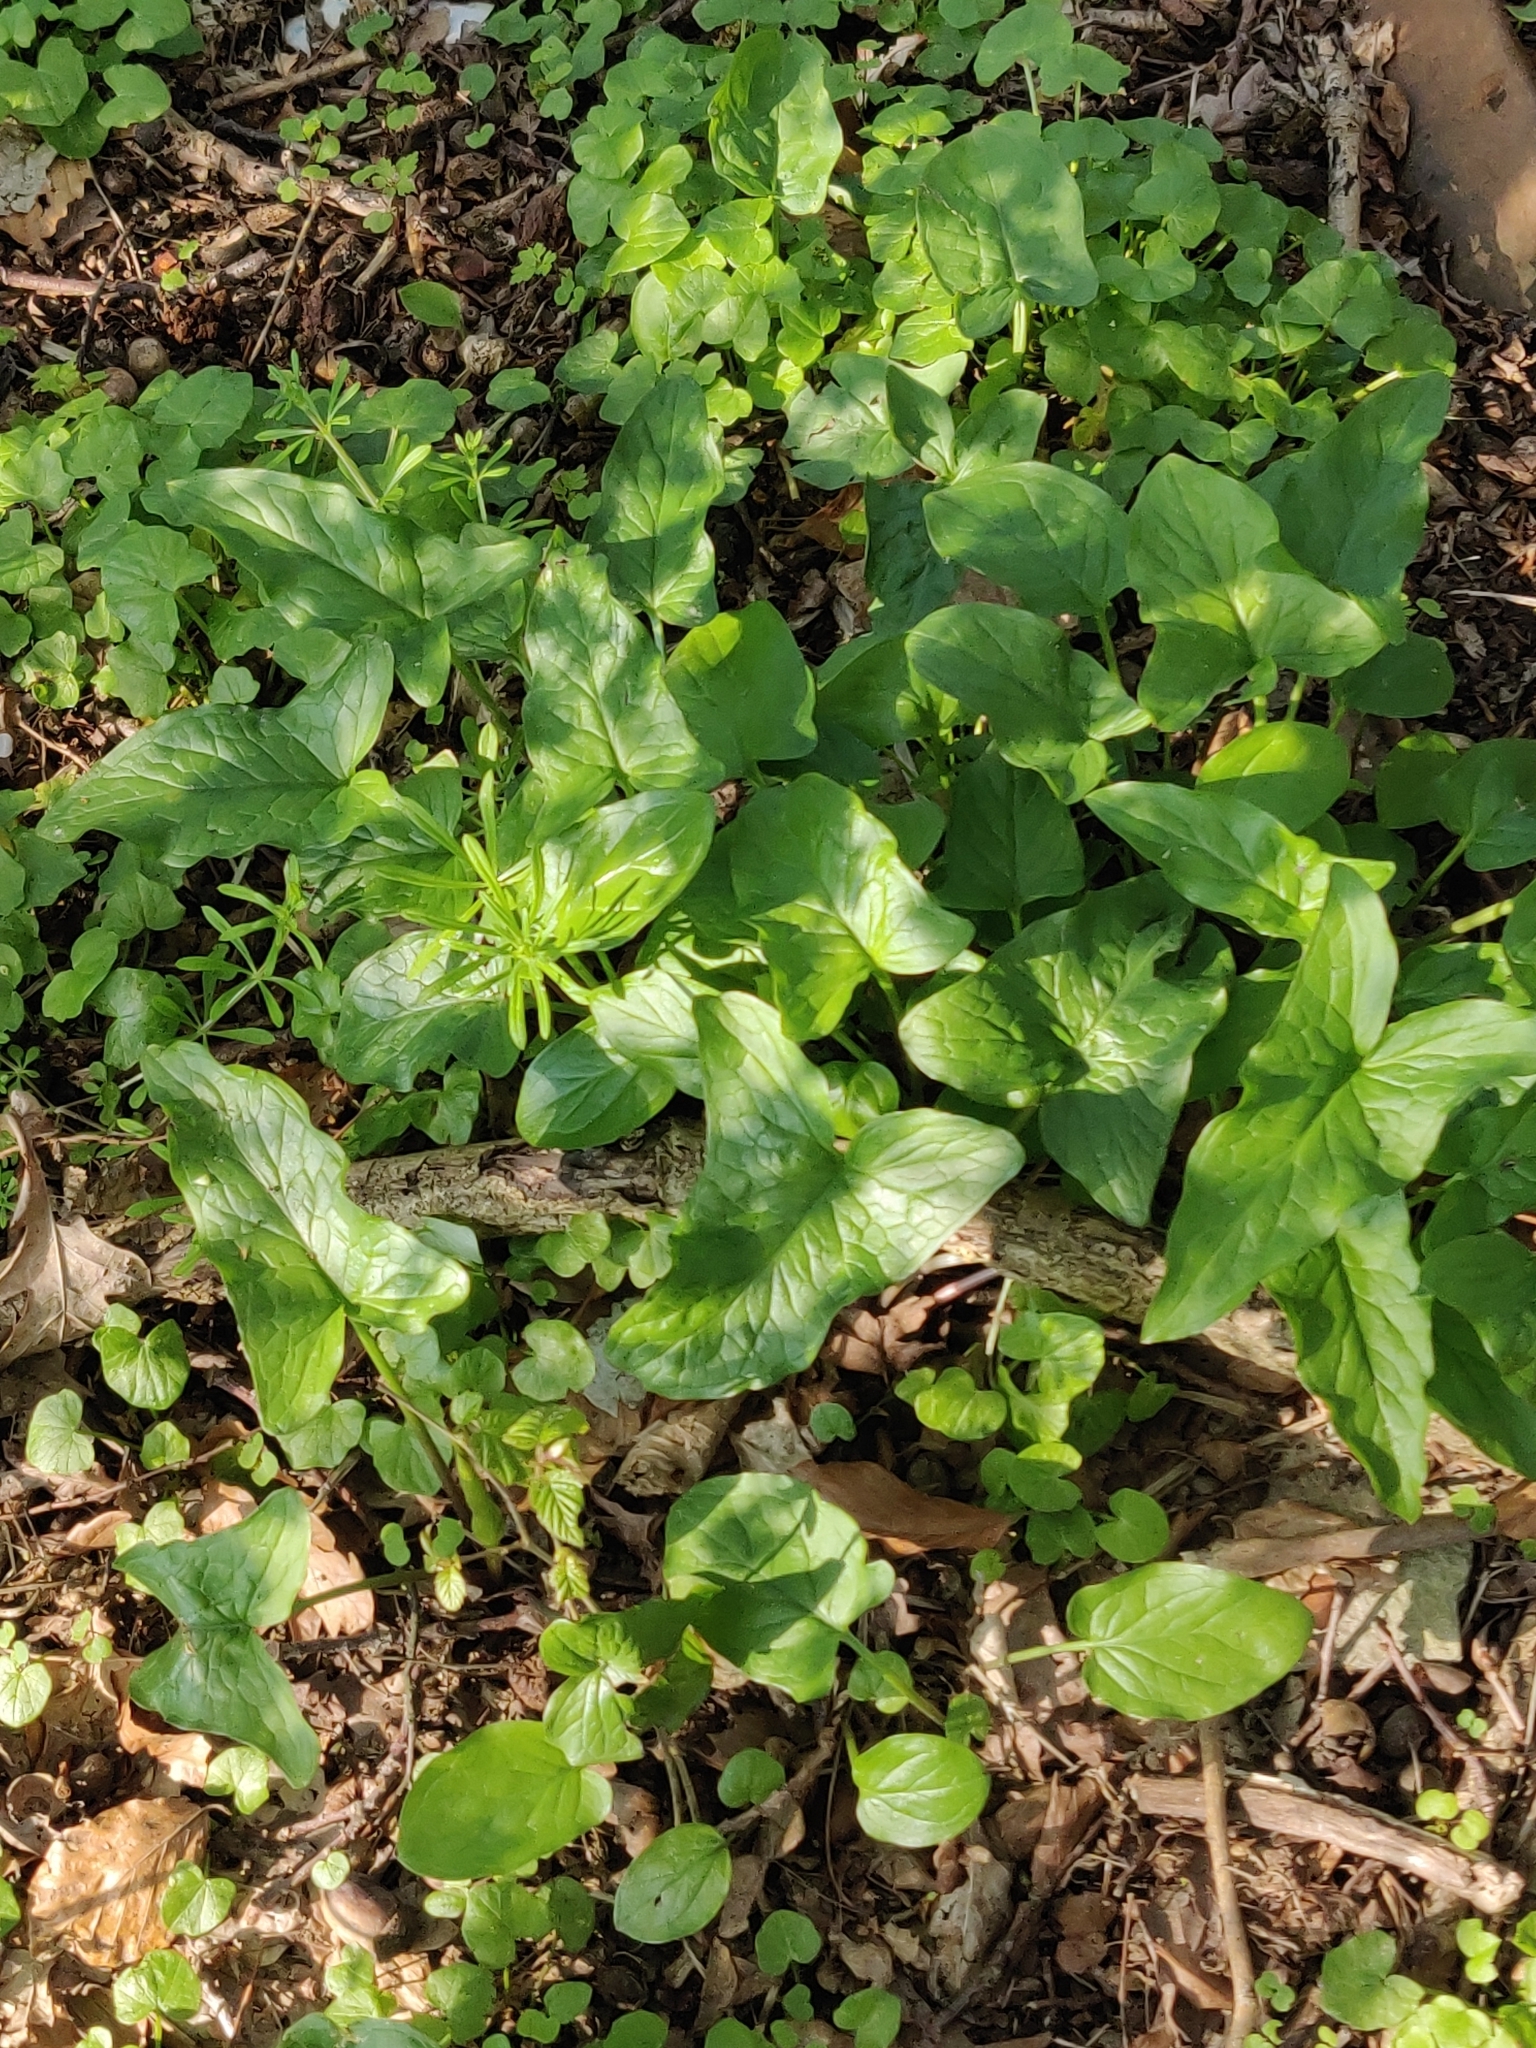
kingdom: Plantae
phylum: Tracheophyta
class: Liliopsida
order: Alismatales
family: Araceae
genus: Arum
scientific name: Arum maculatum
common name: Lords-and-ladies
